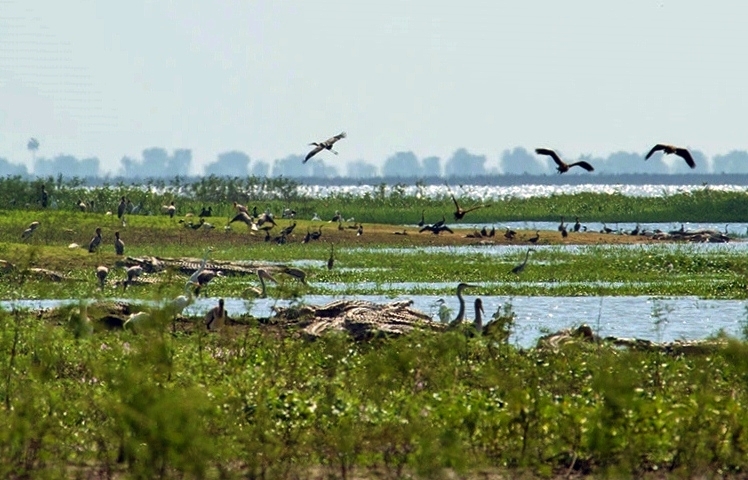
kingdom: Animalia
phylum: Chordata
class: Crocodylia
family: Crocodylidae
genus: Crocodylus
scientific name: Crocodylus niloticus
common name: Nile crocodile
